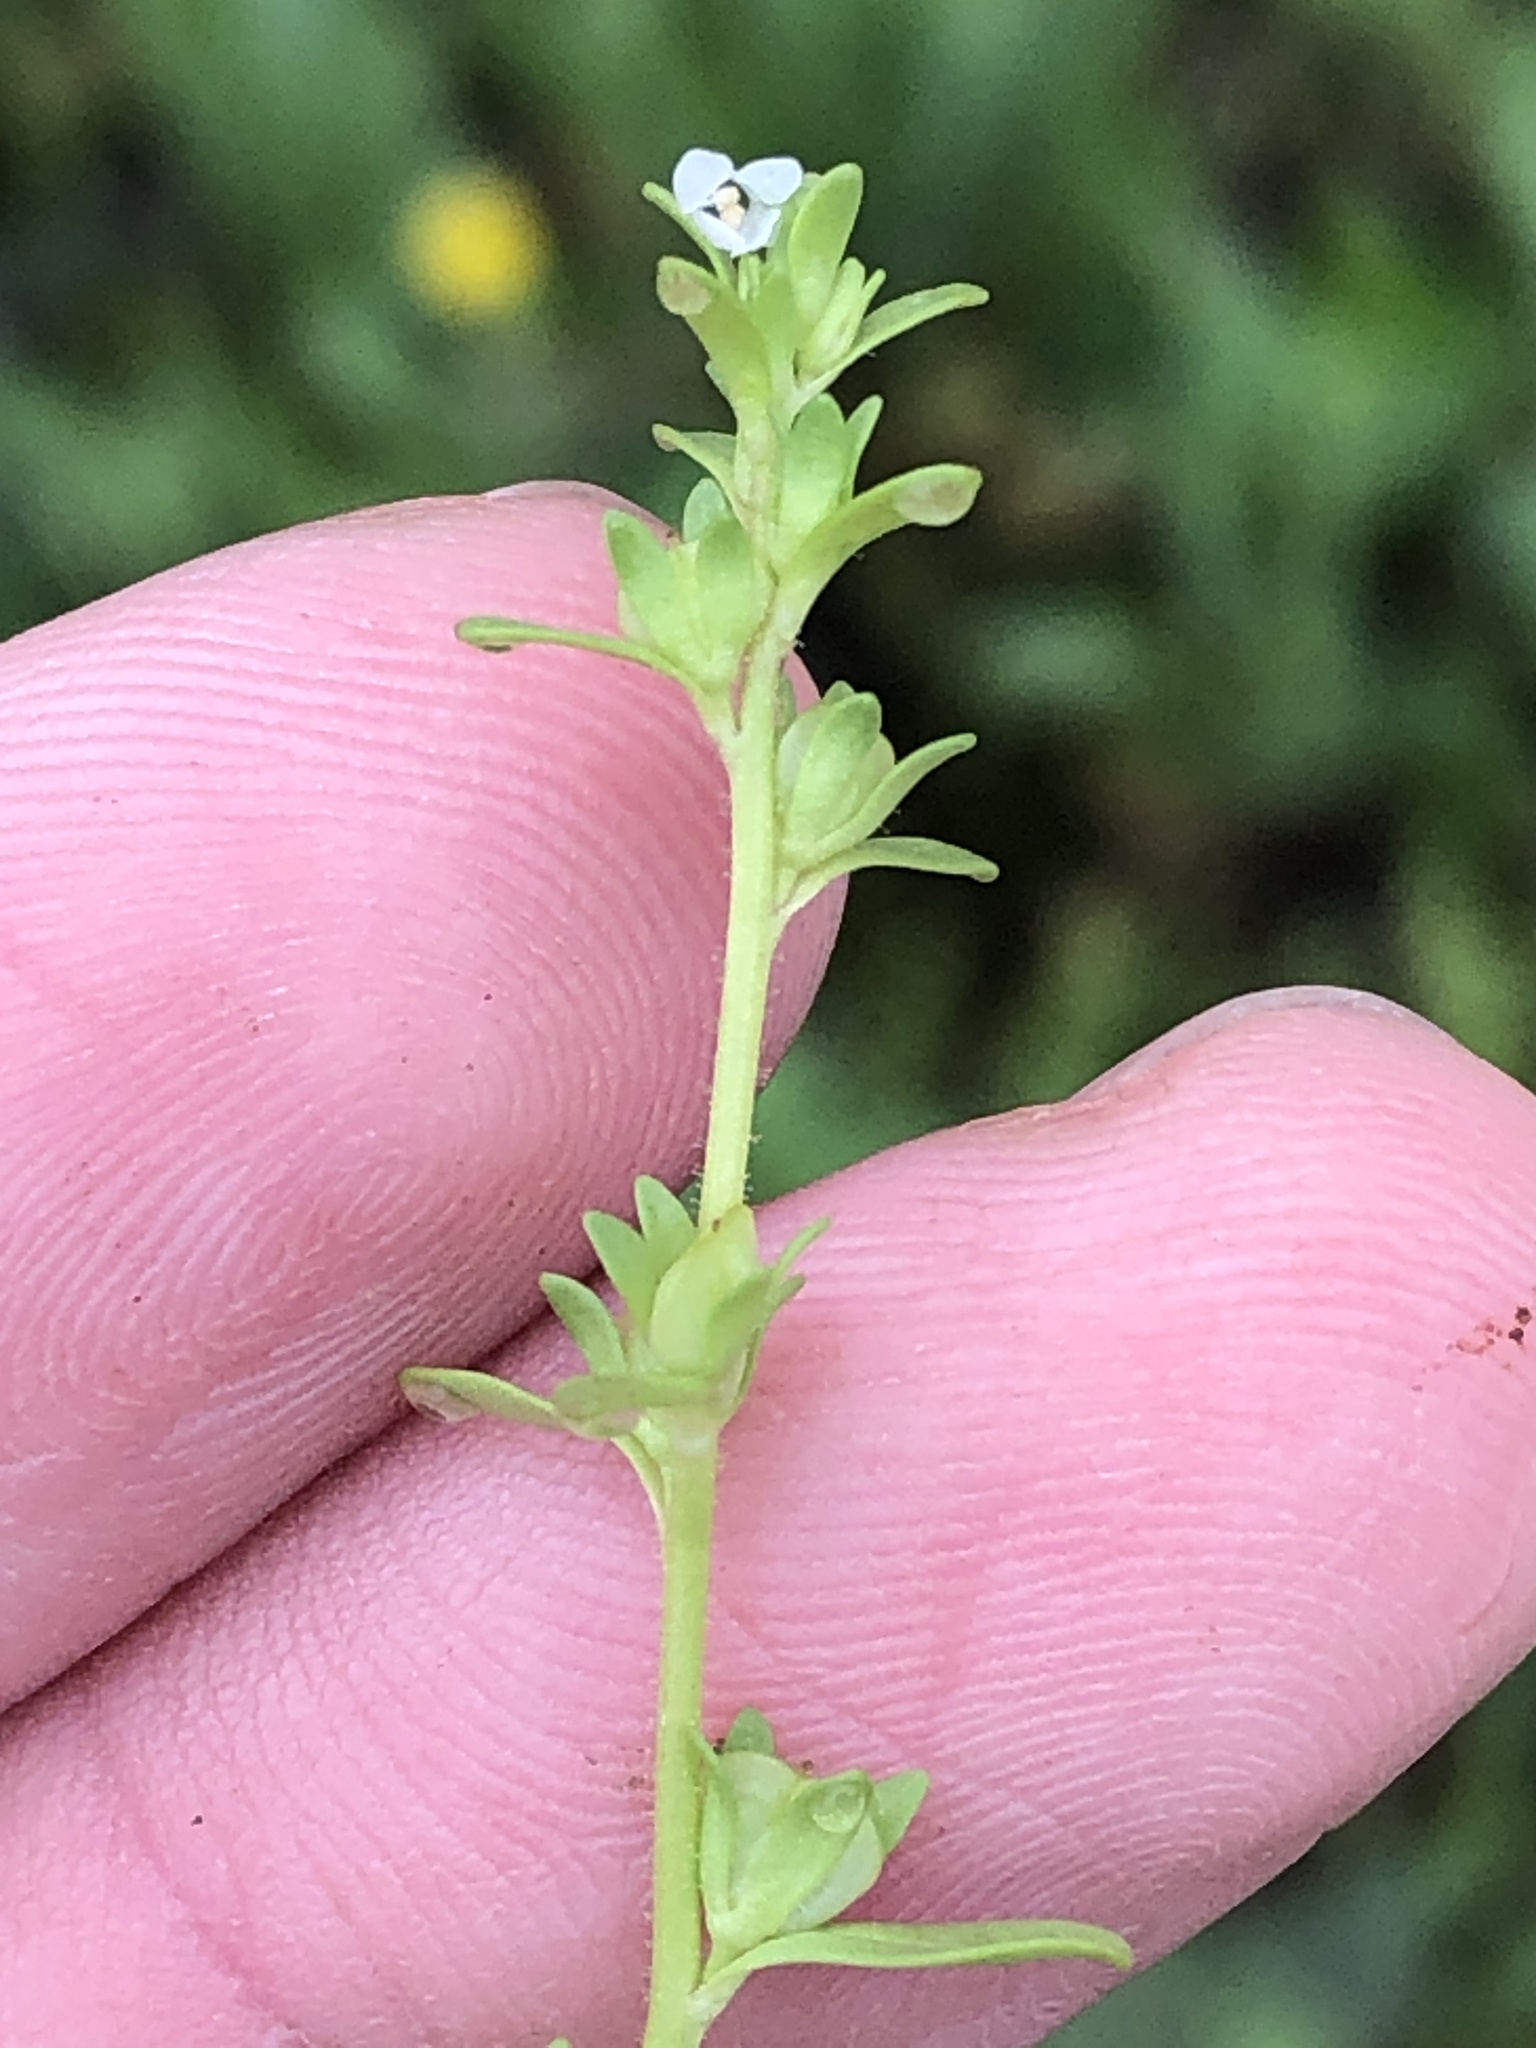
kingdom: Plantae
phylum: Tracheophyta
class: Magnoliopsida
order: Lamiales
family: Plantaginaceae
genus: Veronica
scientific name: Veronica peregrina
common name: Neckweed
